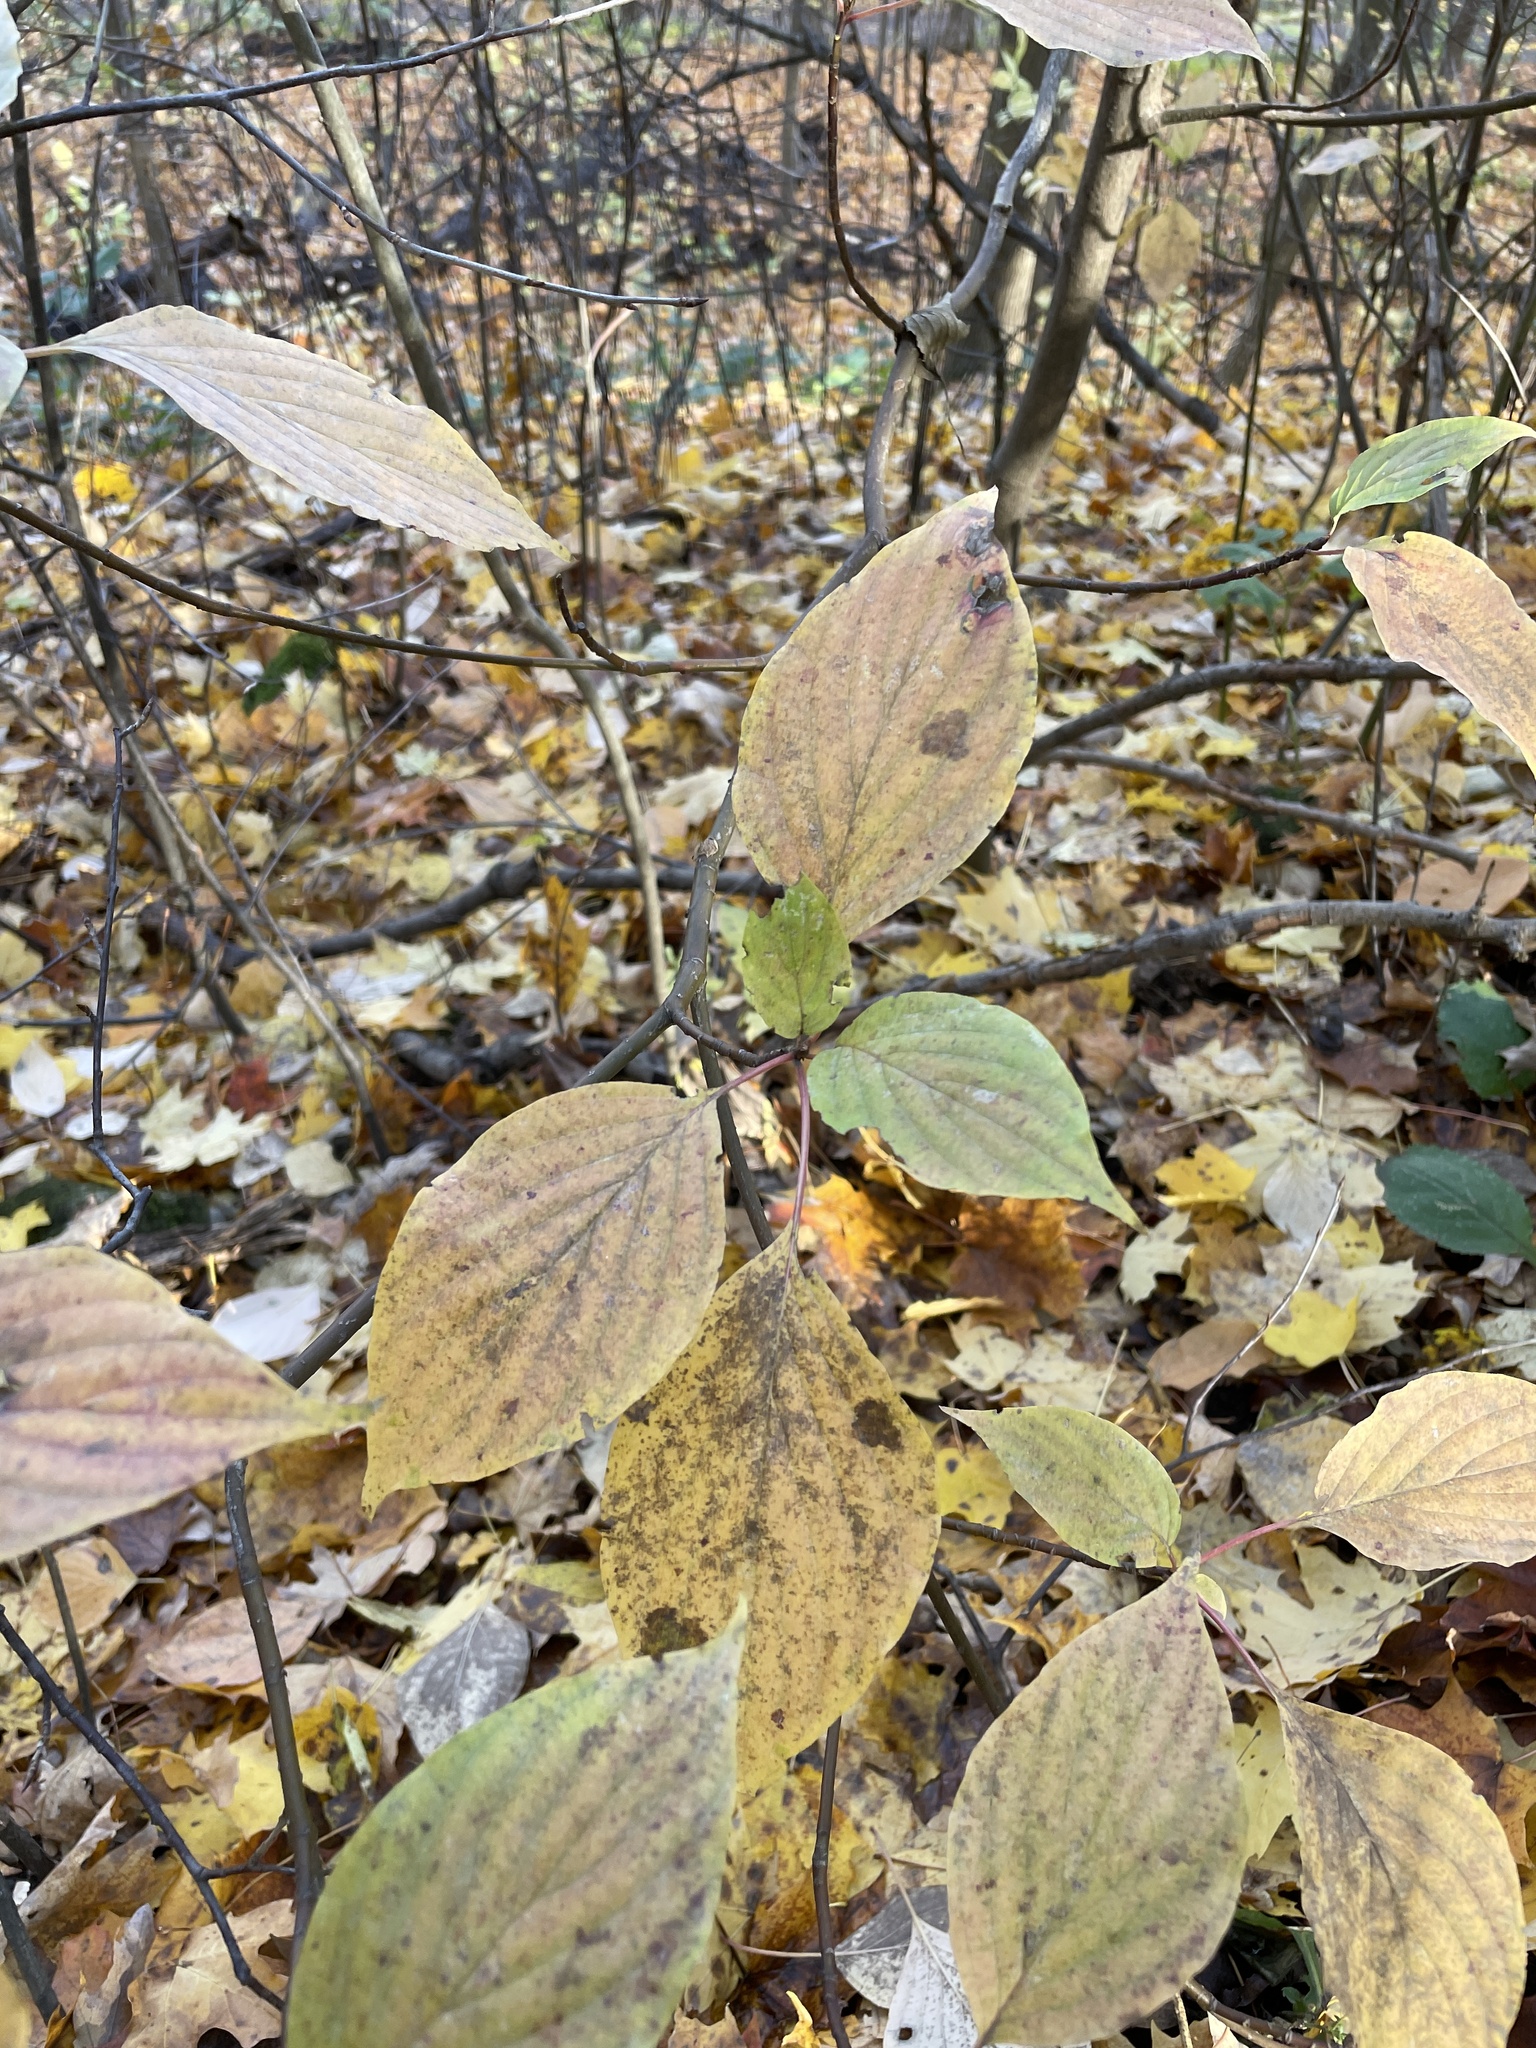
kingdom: Plantae
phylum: Tracheophyta
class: Magnoliopsida
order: Cornales
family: Cornaceae
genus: Cornus
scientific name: Cornus alternifolia
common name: Pagoda dogwood
